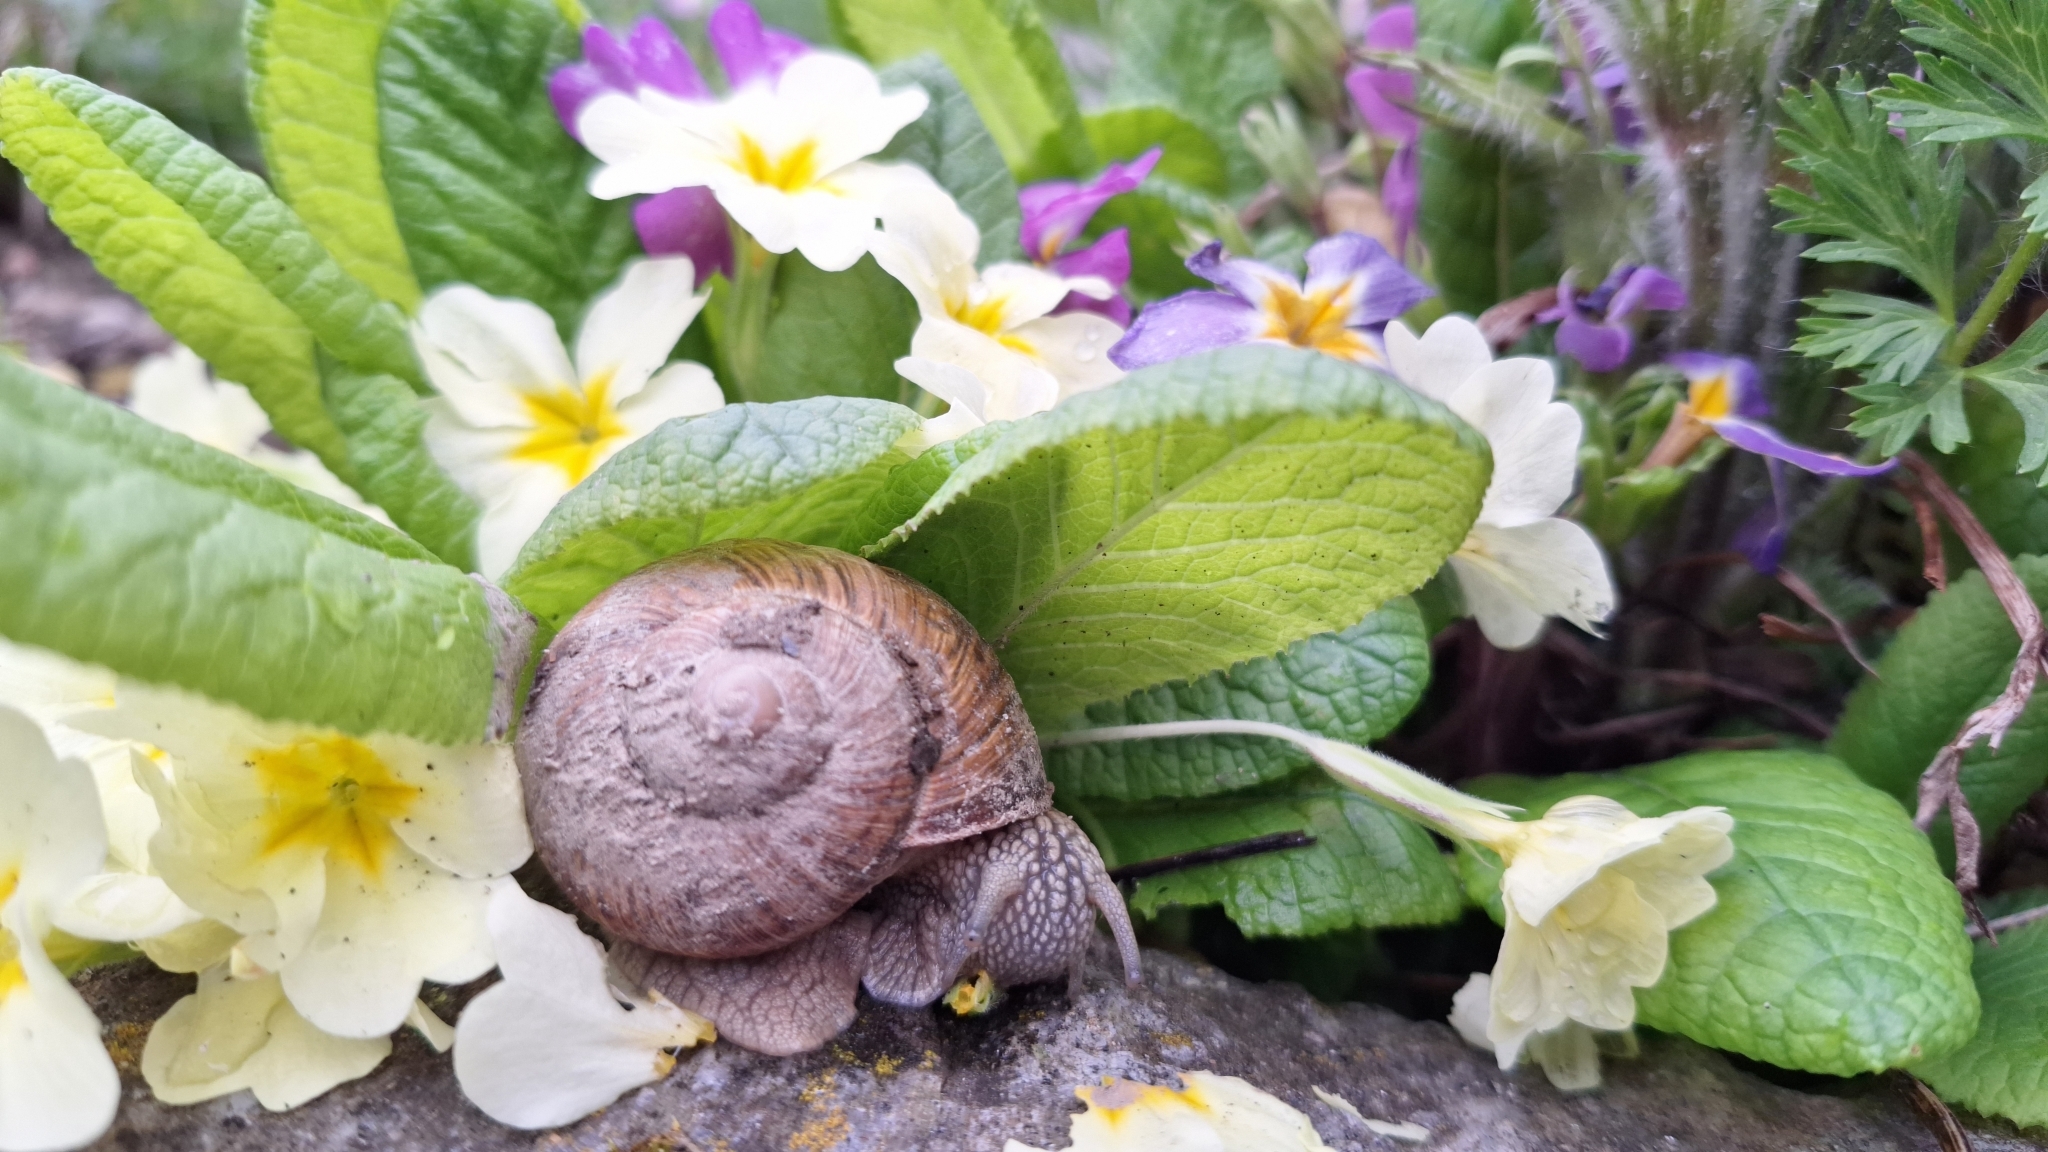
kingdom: Animalia
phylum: Mollusca
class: Gastropoda
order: Stylommatophora
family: Helicidae
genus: Helix
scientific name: Helix pomatia
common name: Roman snail
